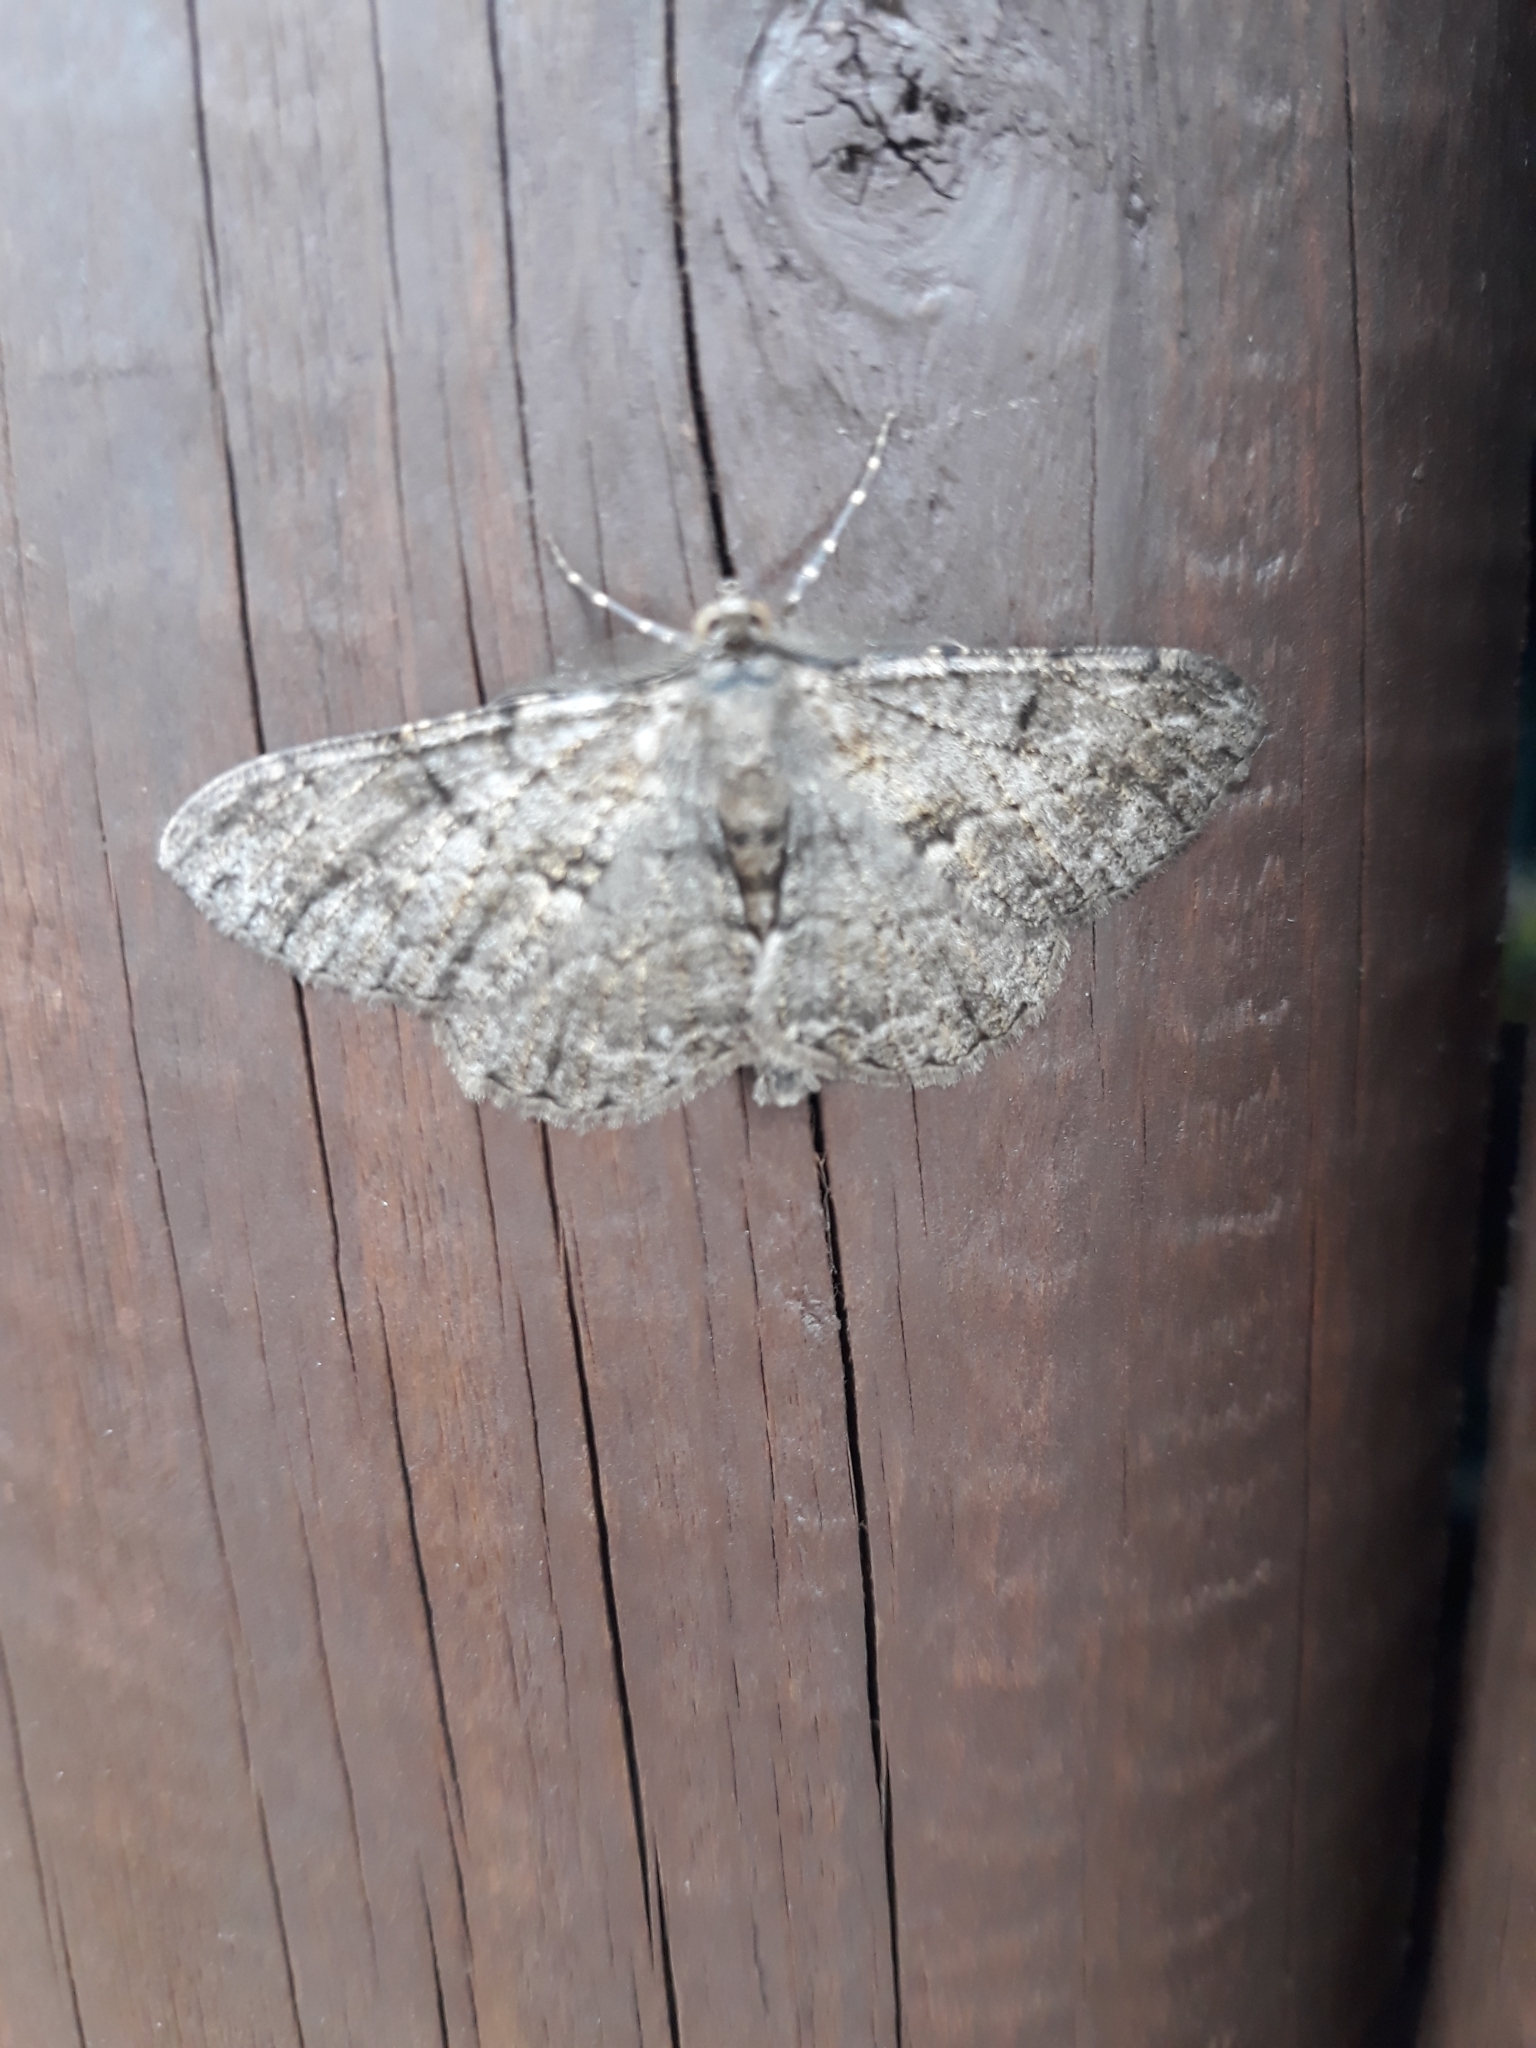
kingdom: Animalia
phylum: Arthropoda
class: Insecta
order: Lepidoptera
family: Geometridae
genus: Peribatodes
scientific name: Peribatodes rhomboidaria
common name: Willow beauty
